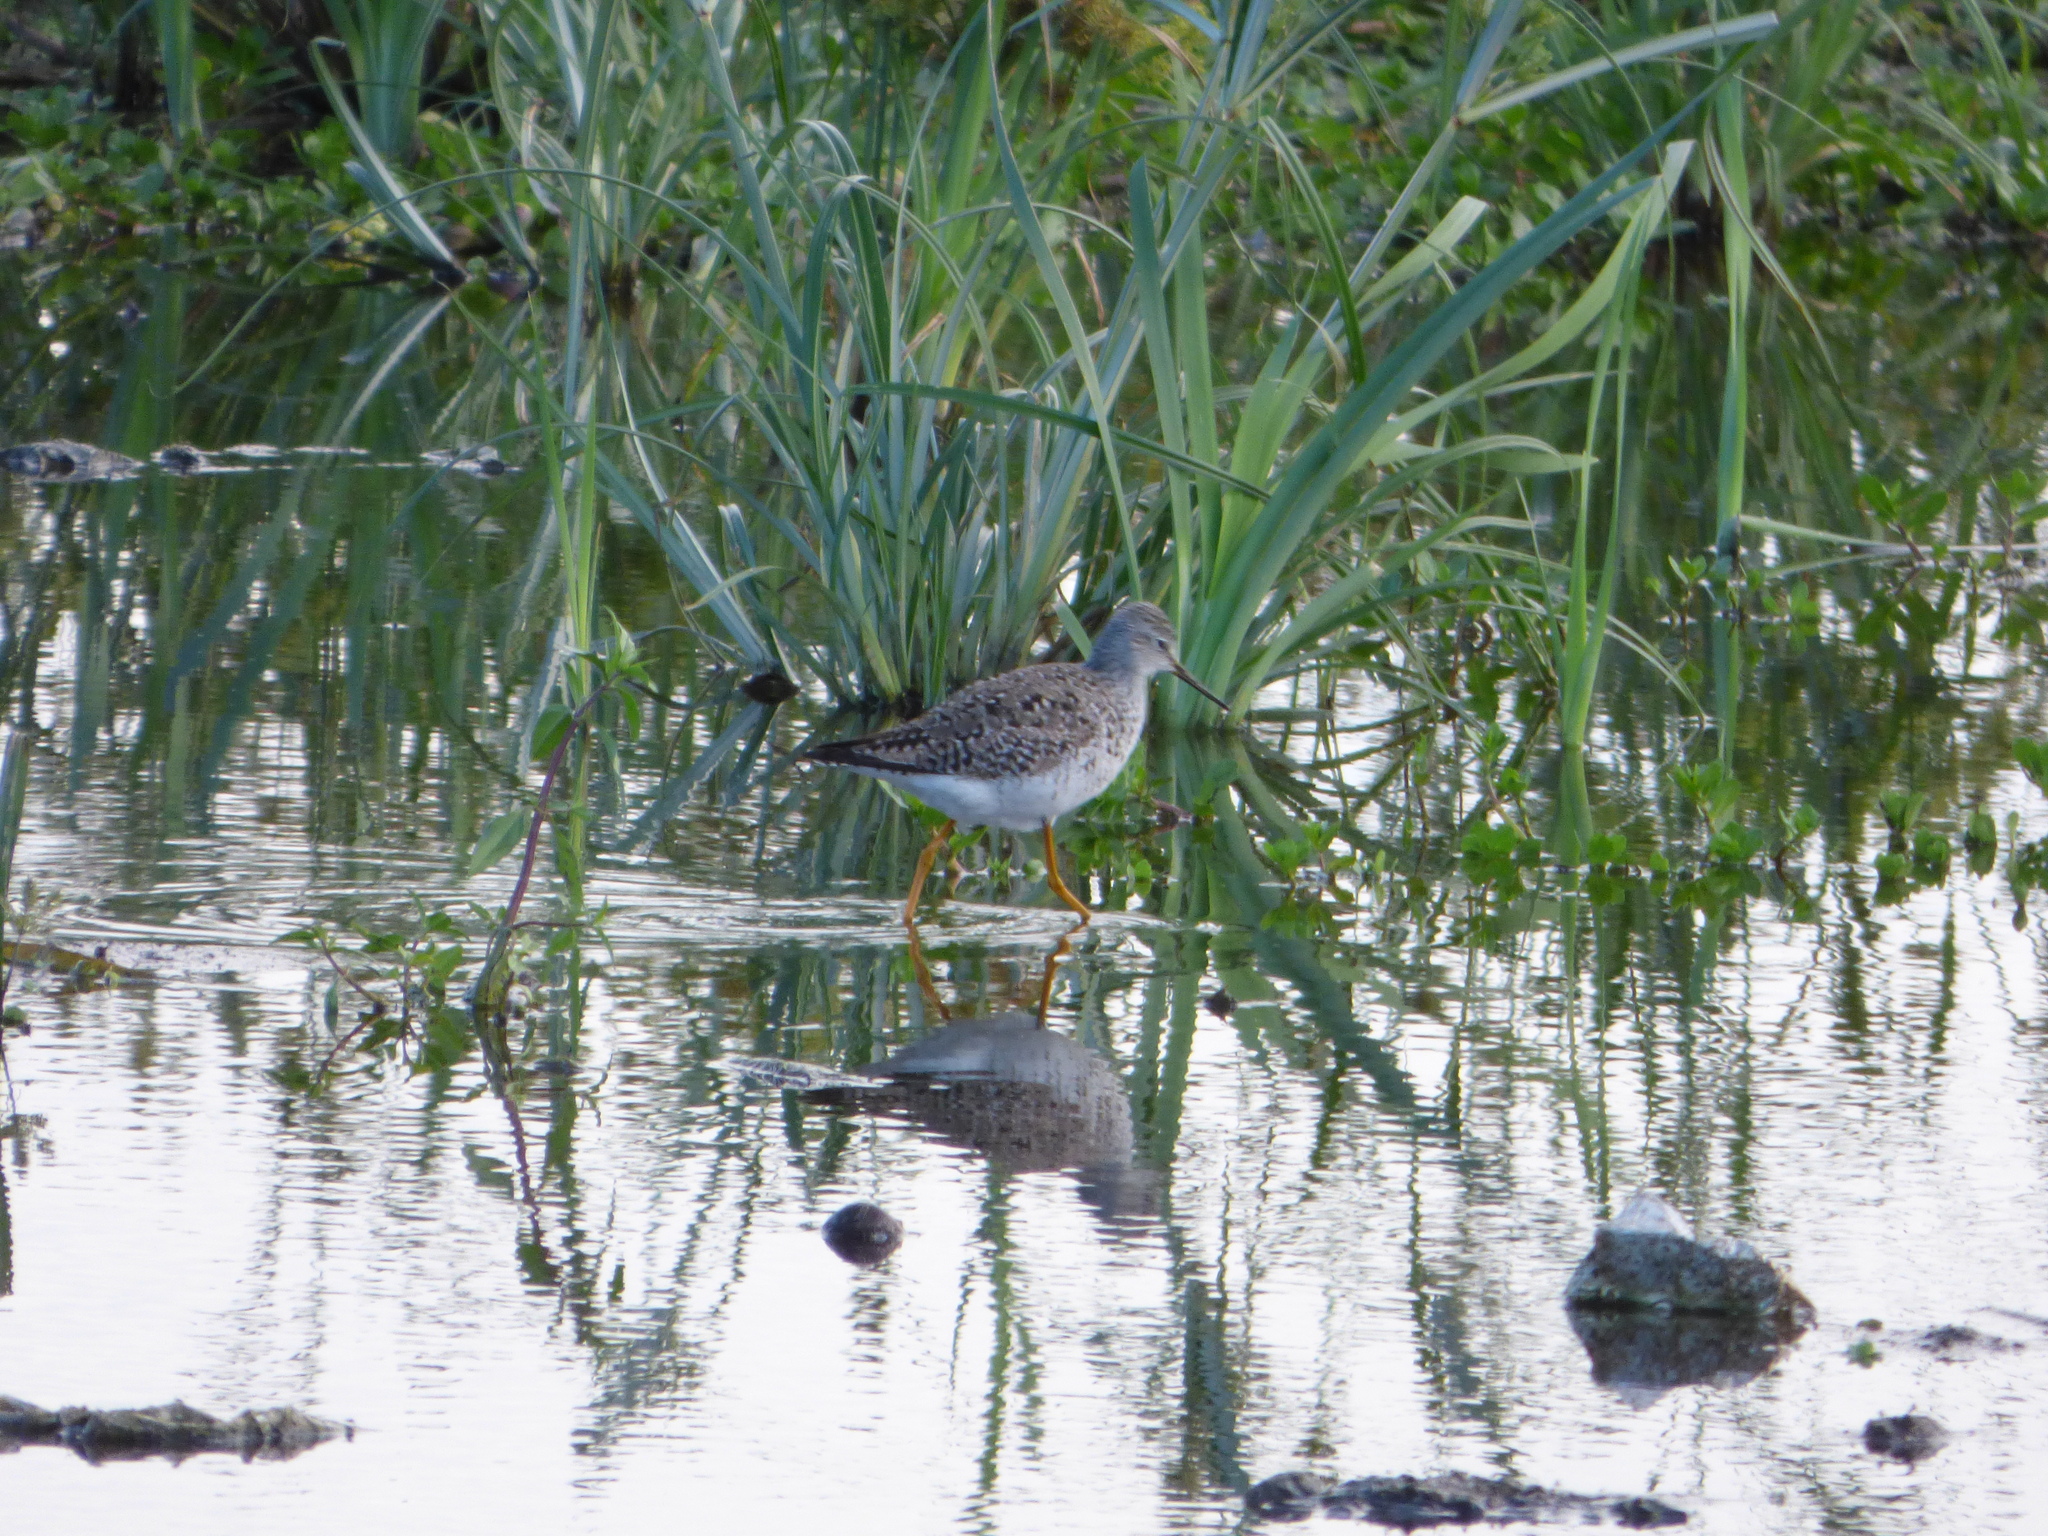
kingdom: Animalia
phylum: Chordata
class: Aves
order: Charadriiformes
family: Scolopacidae
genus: Tringa
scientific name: Tringa flavipes
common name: Lesser yellowlegs
